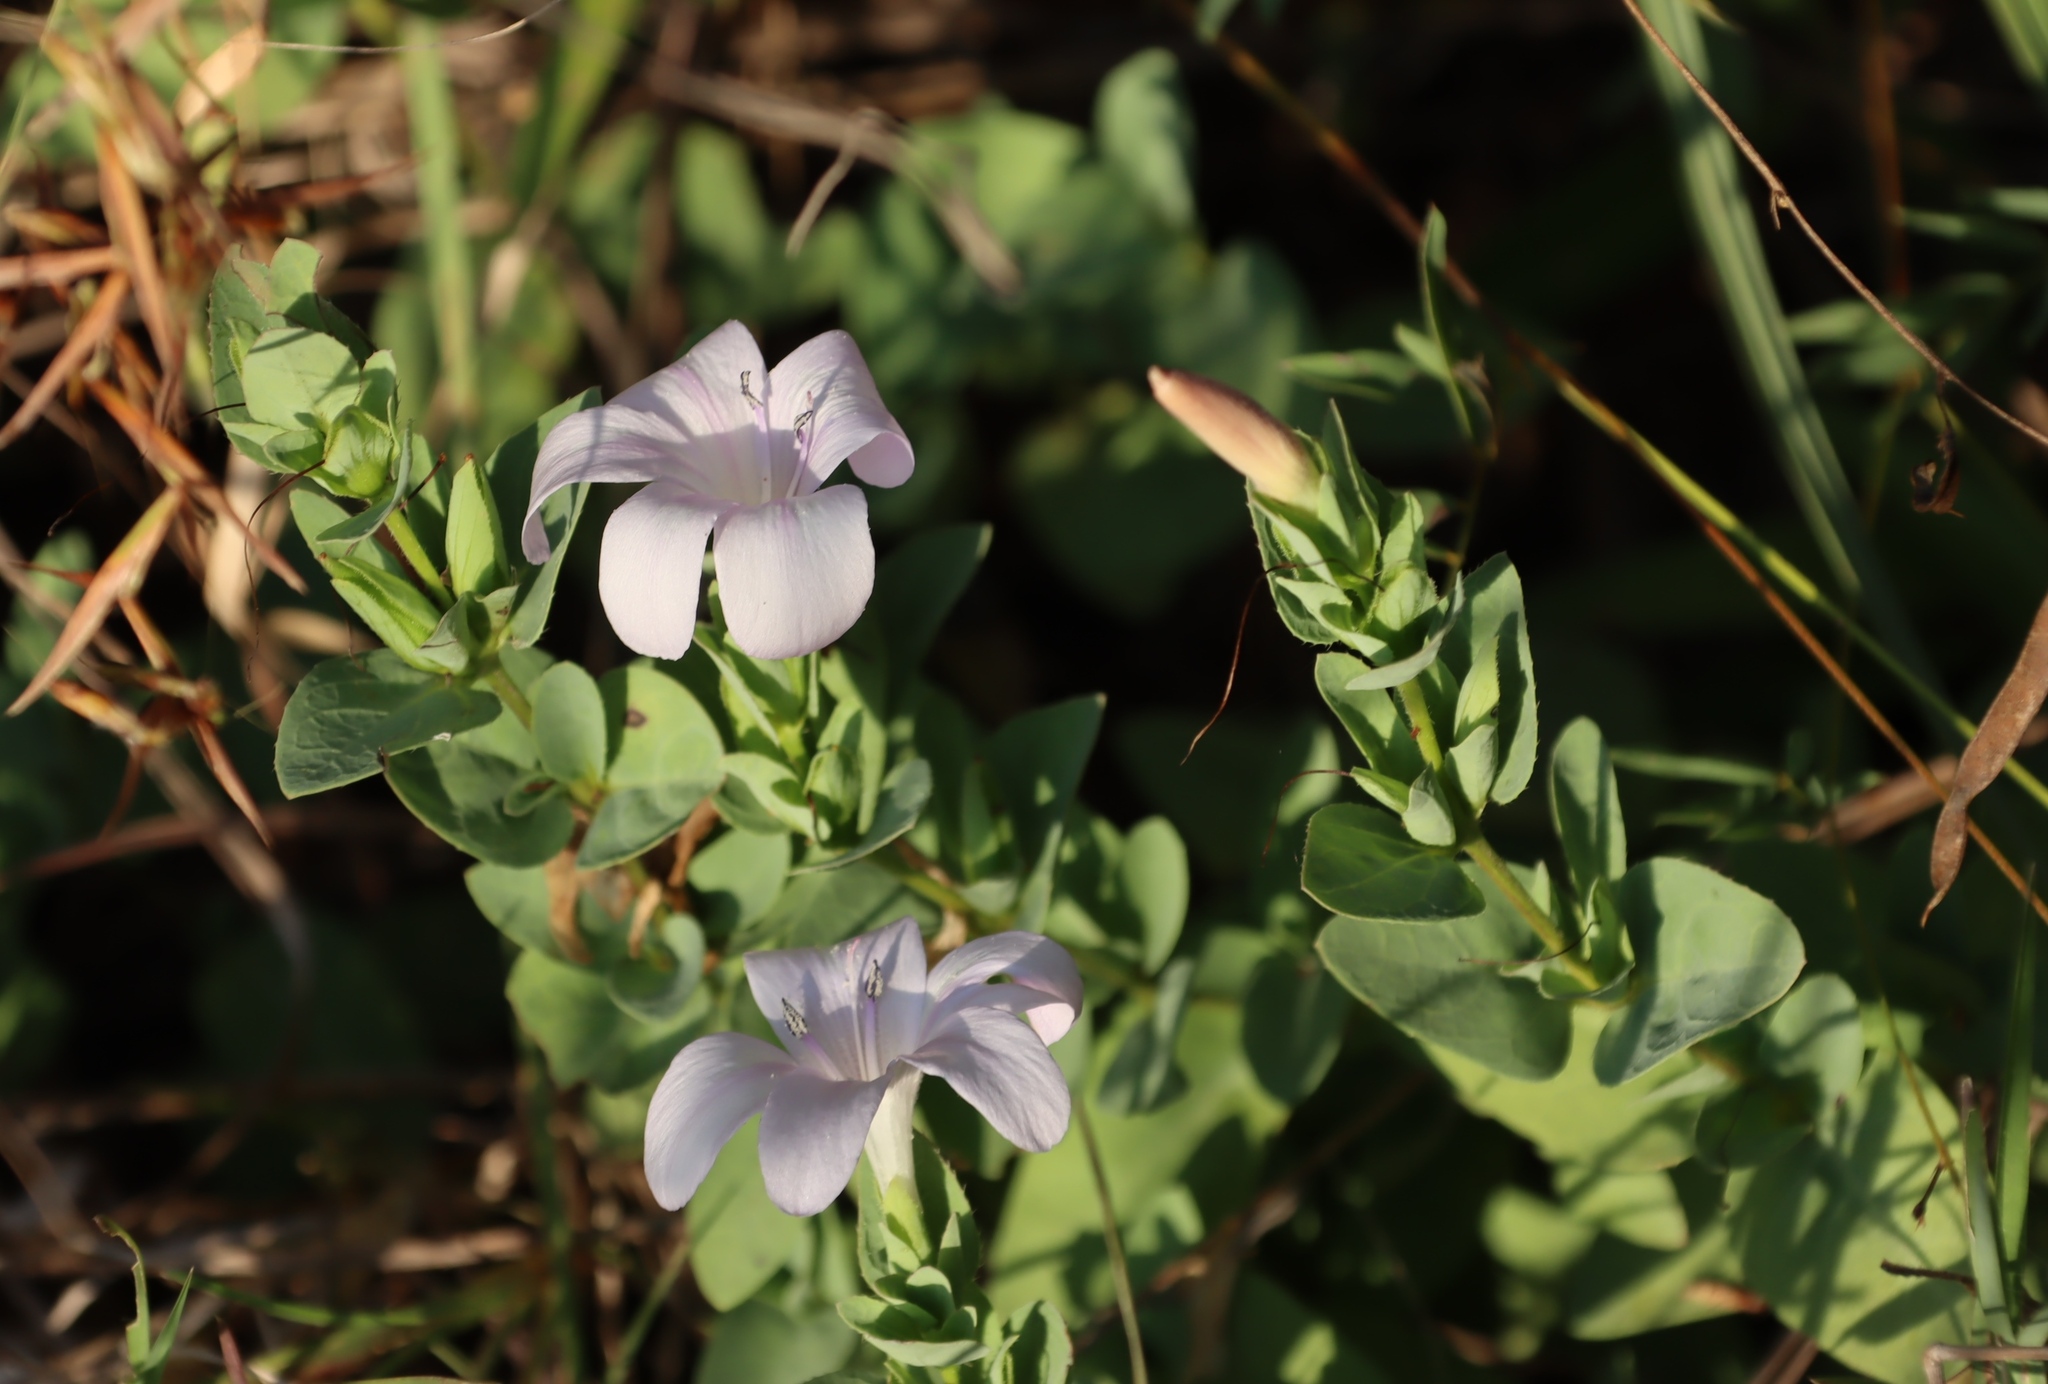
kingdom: Plantae
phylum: Tracheophyta
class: Magnoliopsida
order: Lamiales
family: Acanthaceae
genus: Barleria
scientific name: Barleria wilmsiana
